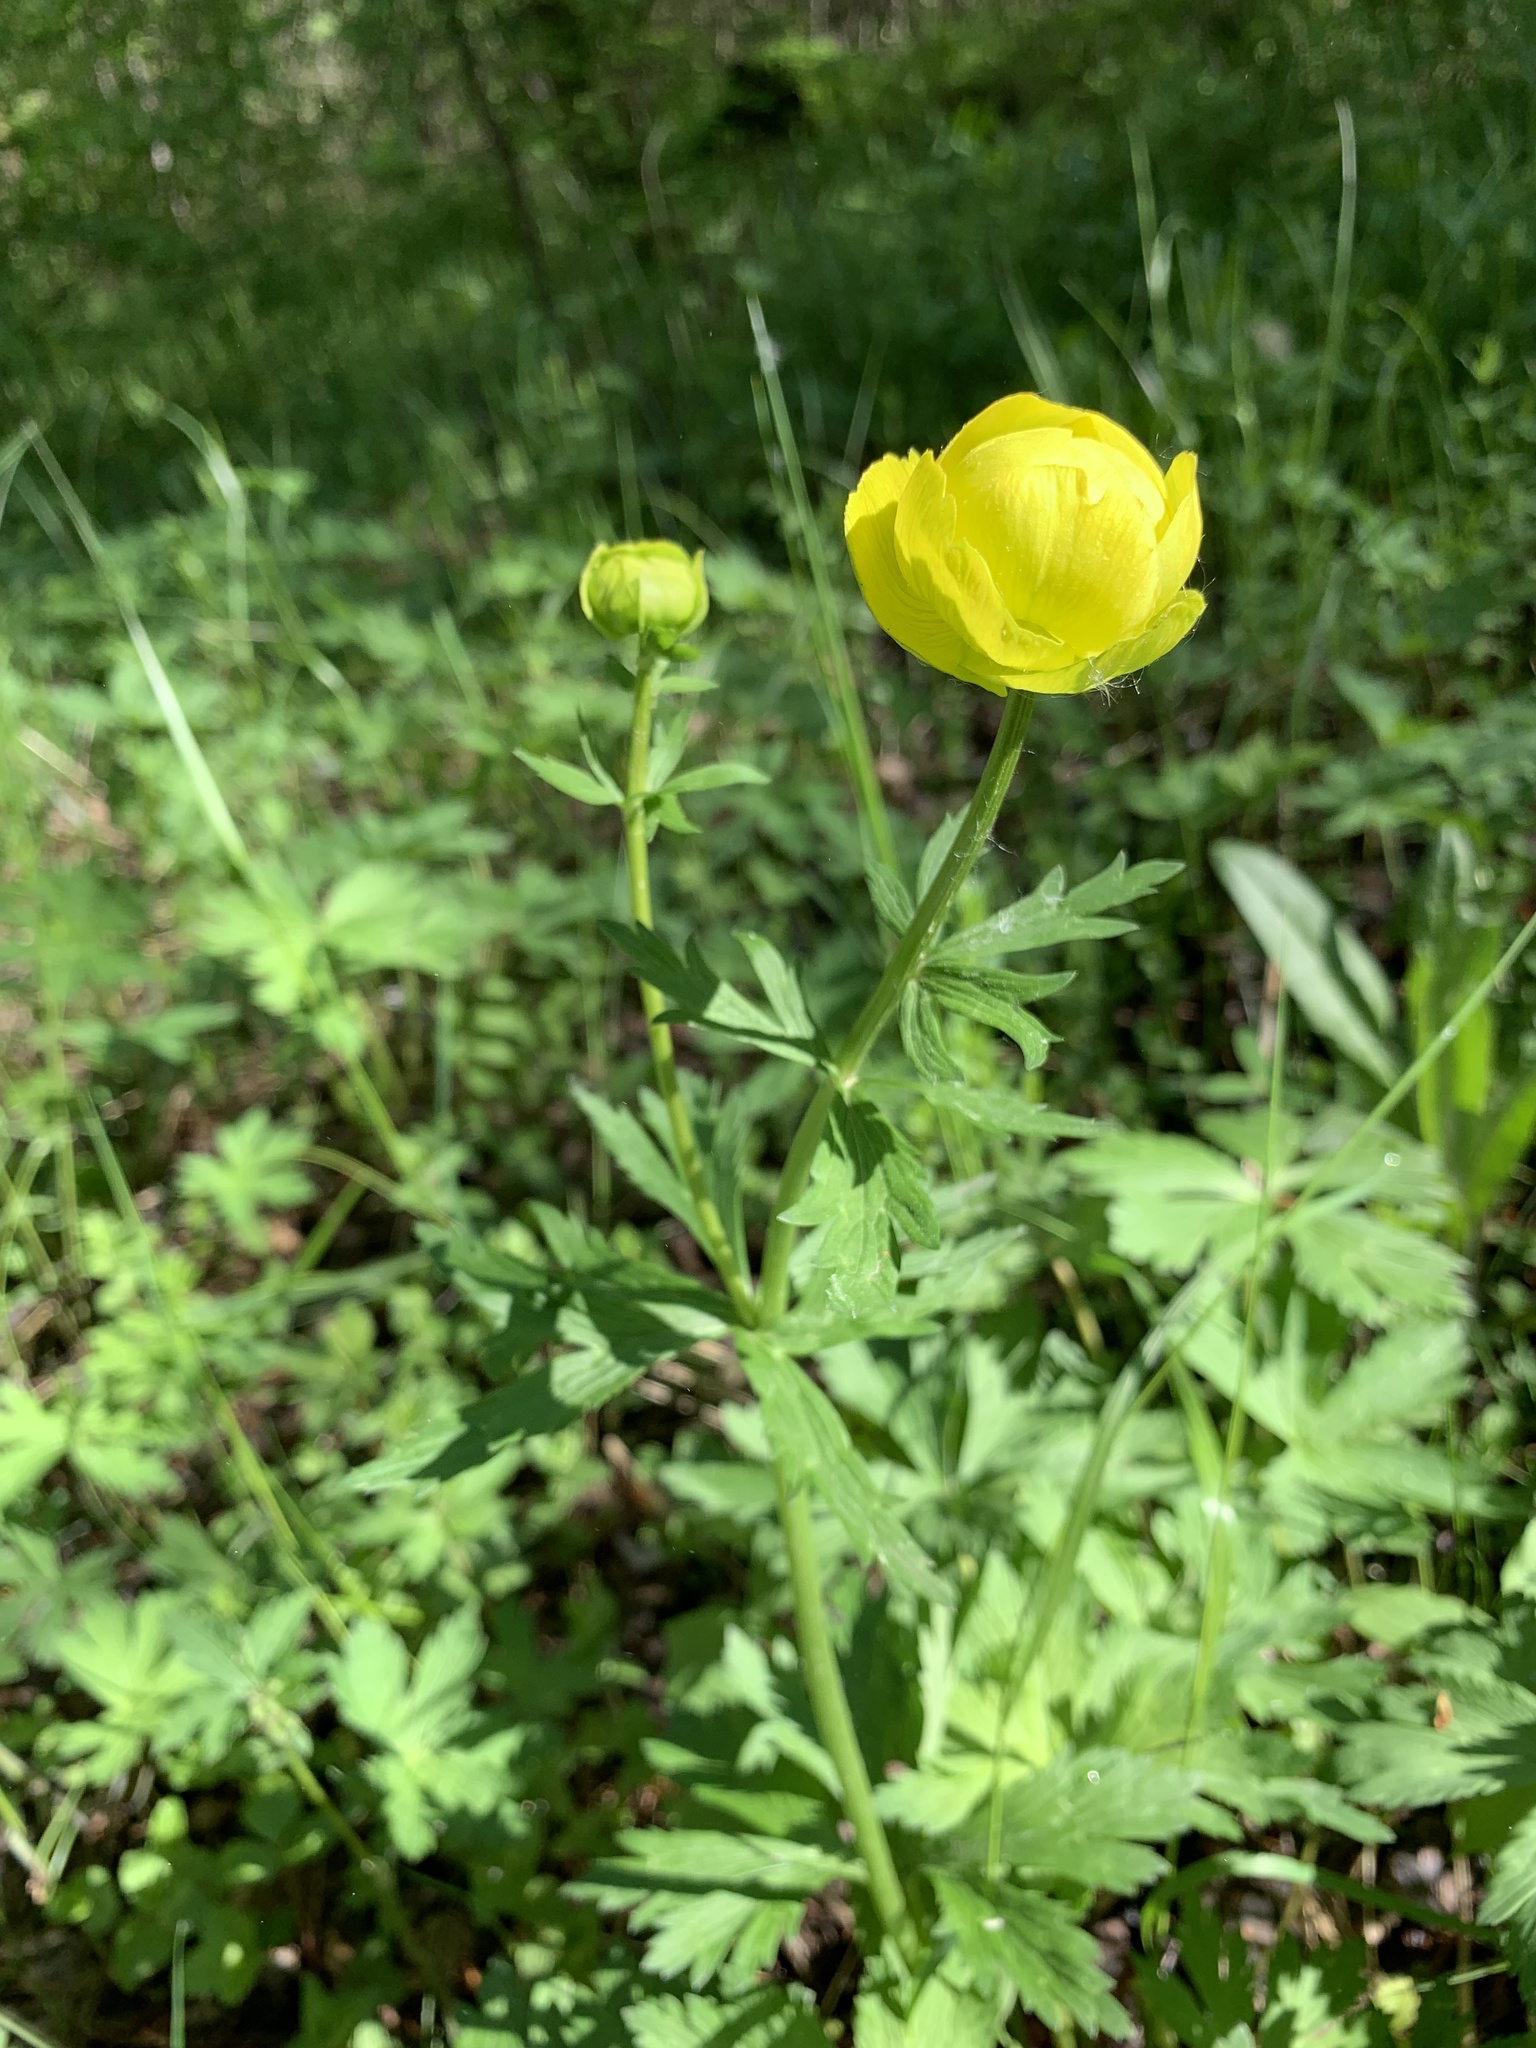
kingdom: Plantae
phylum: Tracheophyta
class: Magnoliopsida
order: Ranunculales
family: Ranunculaceae
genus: Trollius
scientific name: Trollius europaeus
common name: European globeflower
